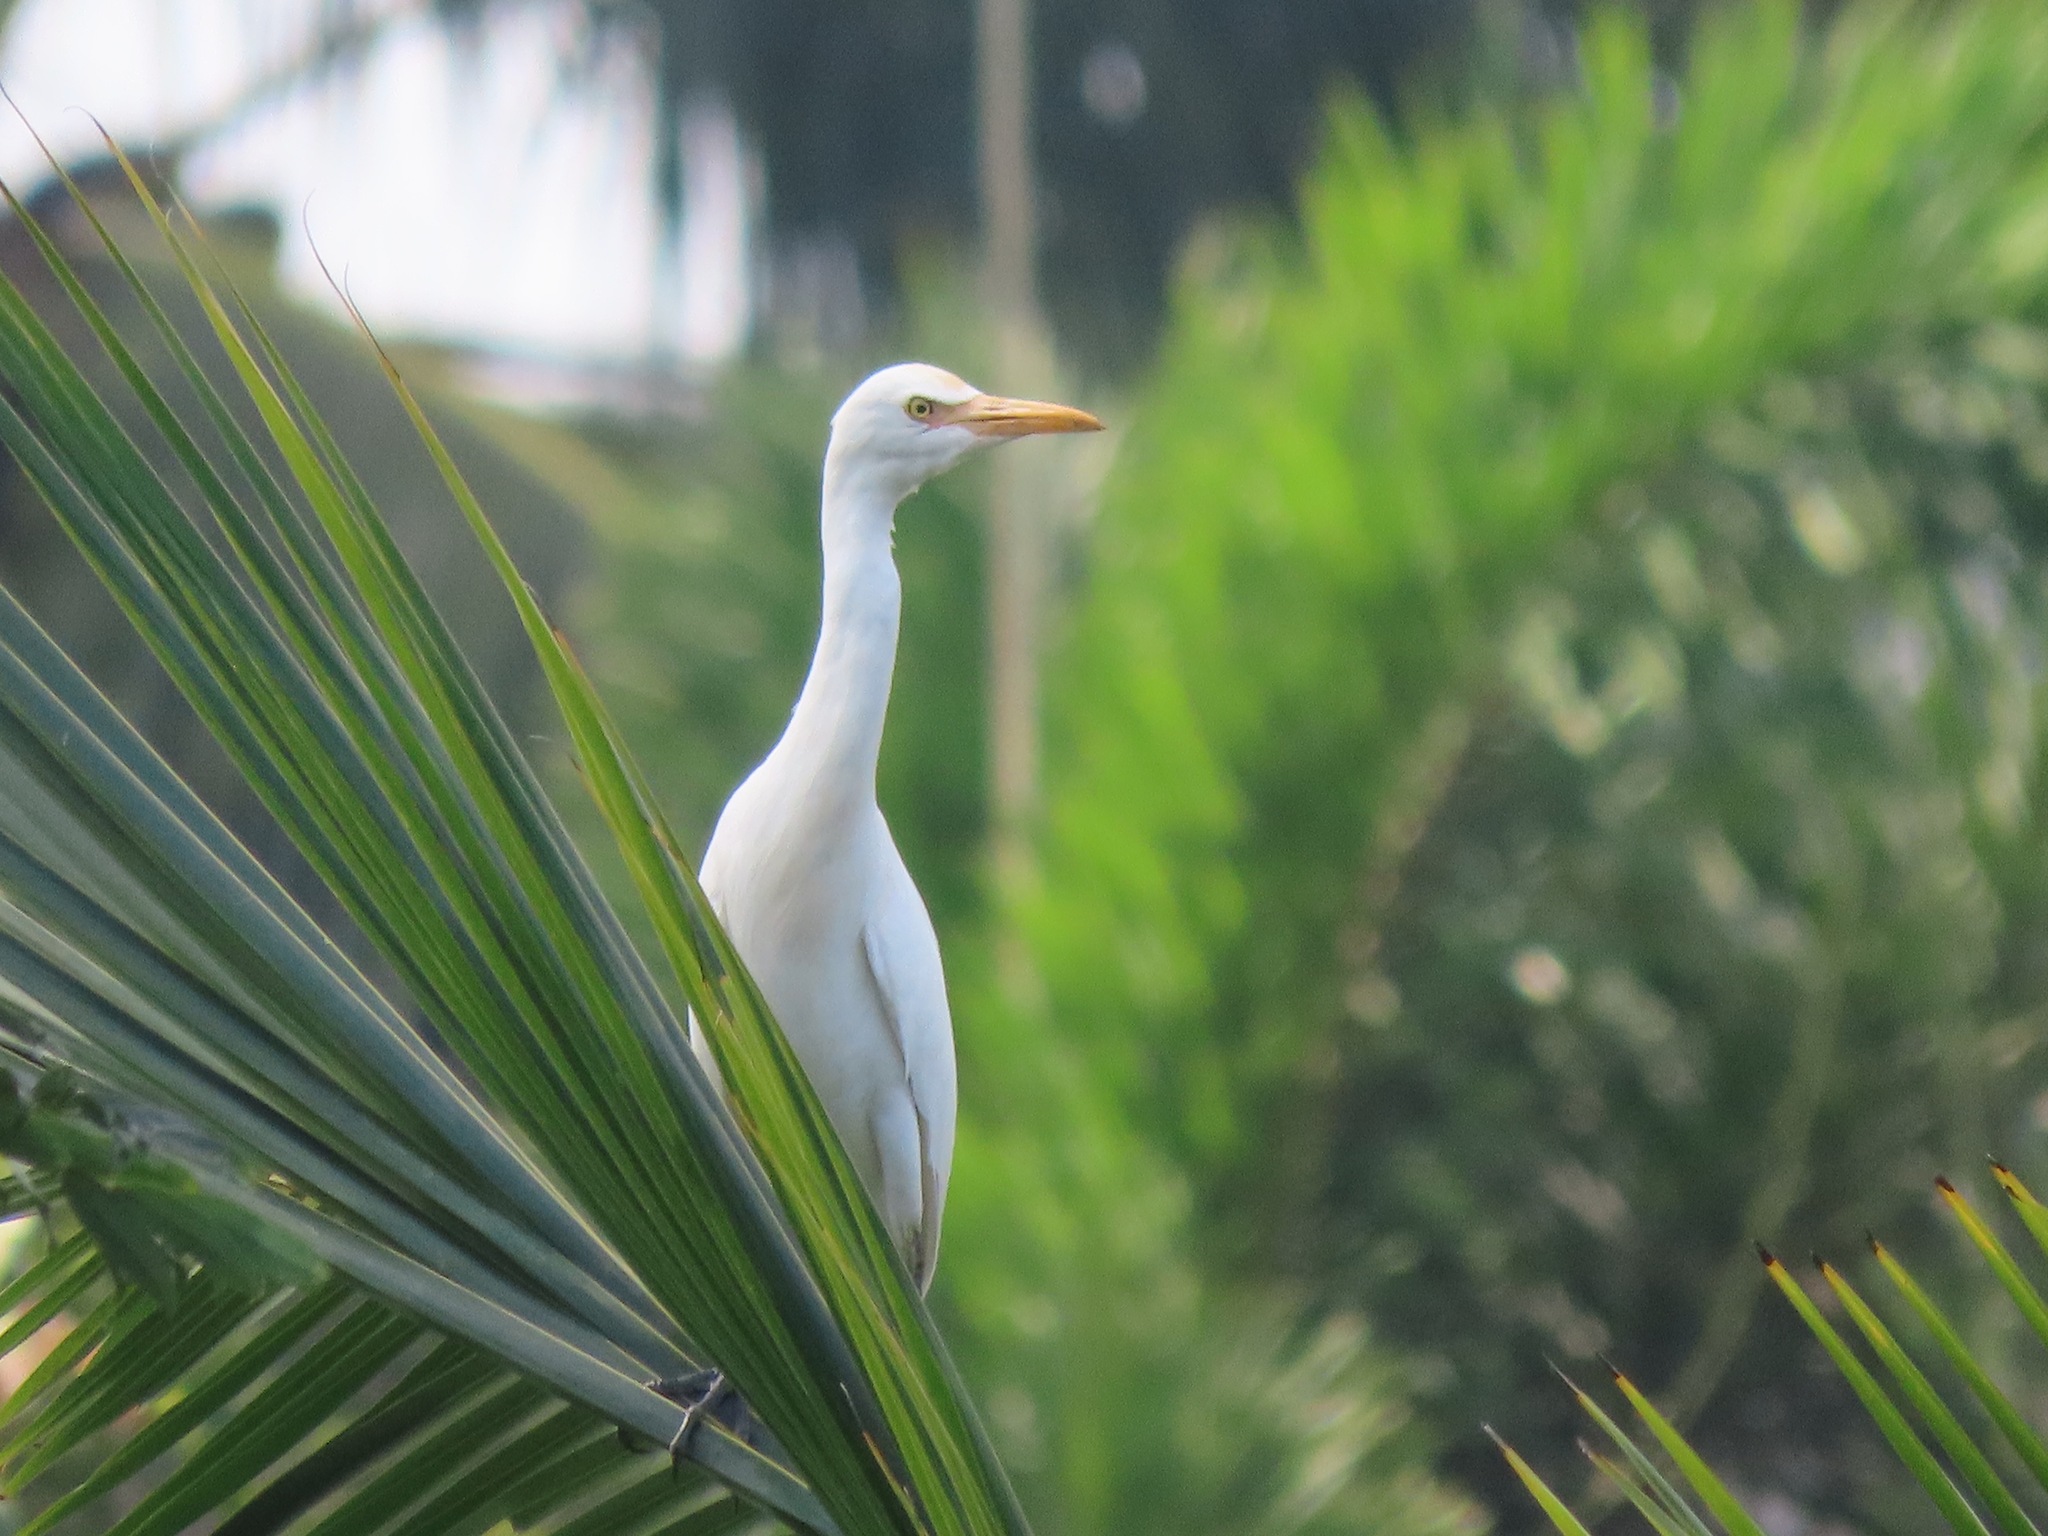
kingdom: Animalia
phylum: Chordata
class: Aves
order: Pelecaniformes
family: Ardeidae
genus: Bubulcus
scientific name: Bubulcus coromandus
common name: Eastern cattle egret
